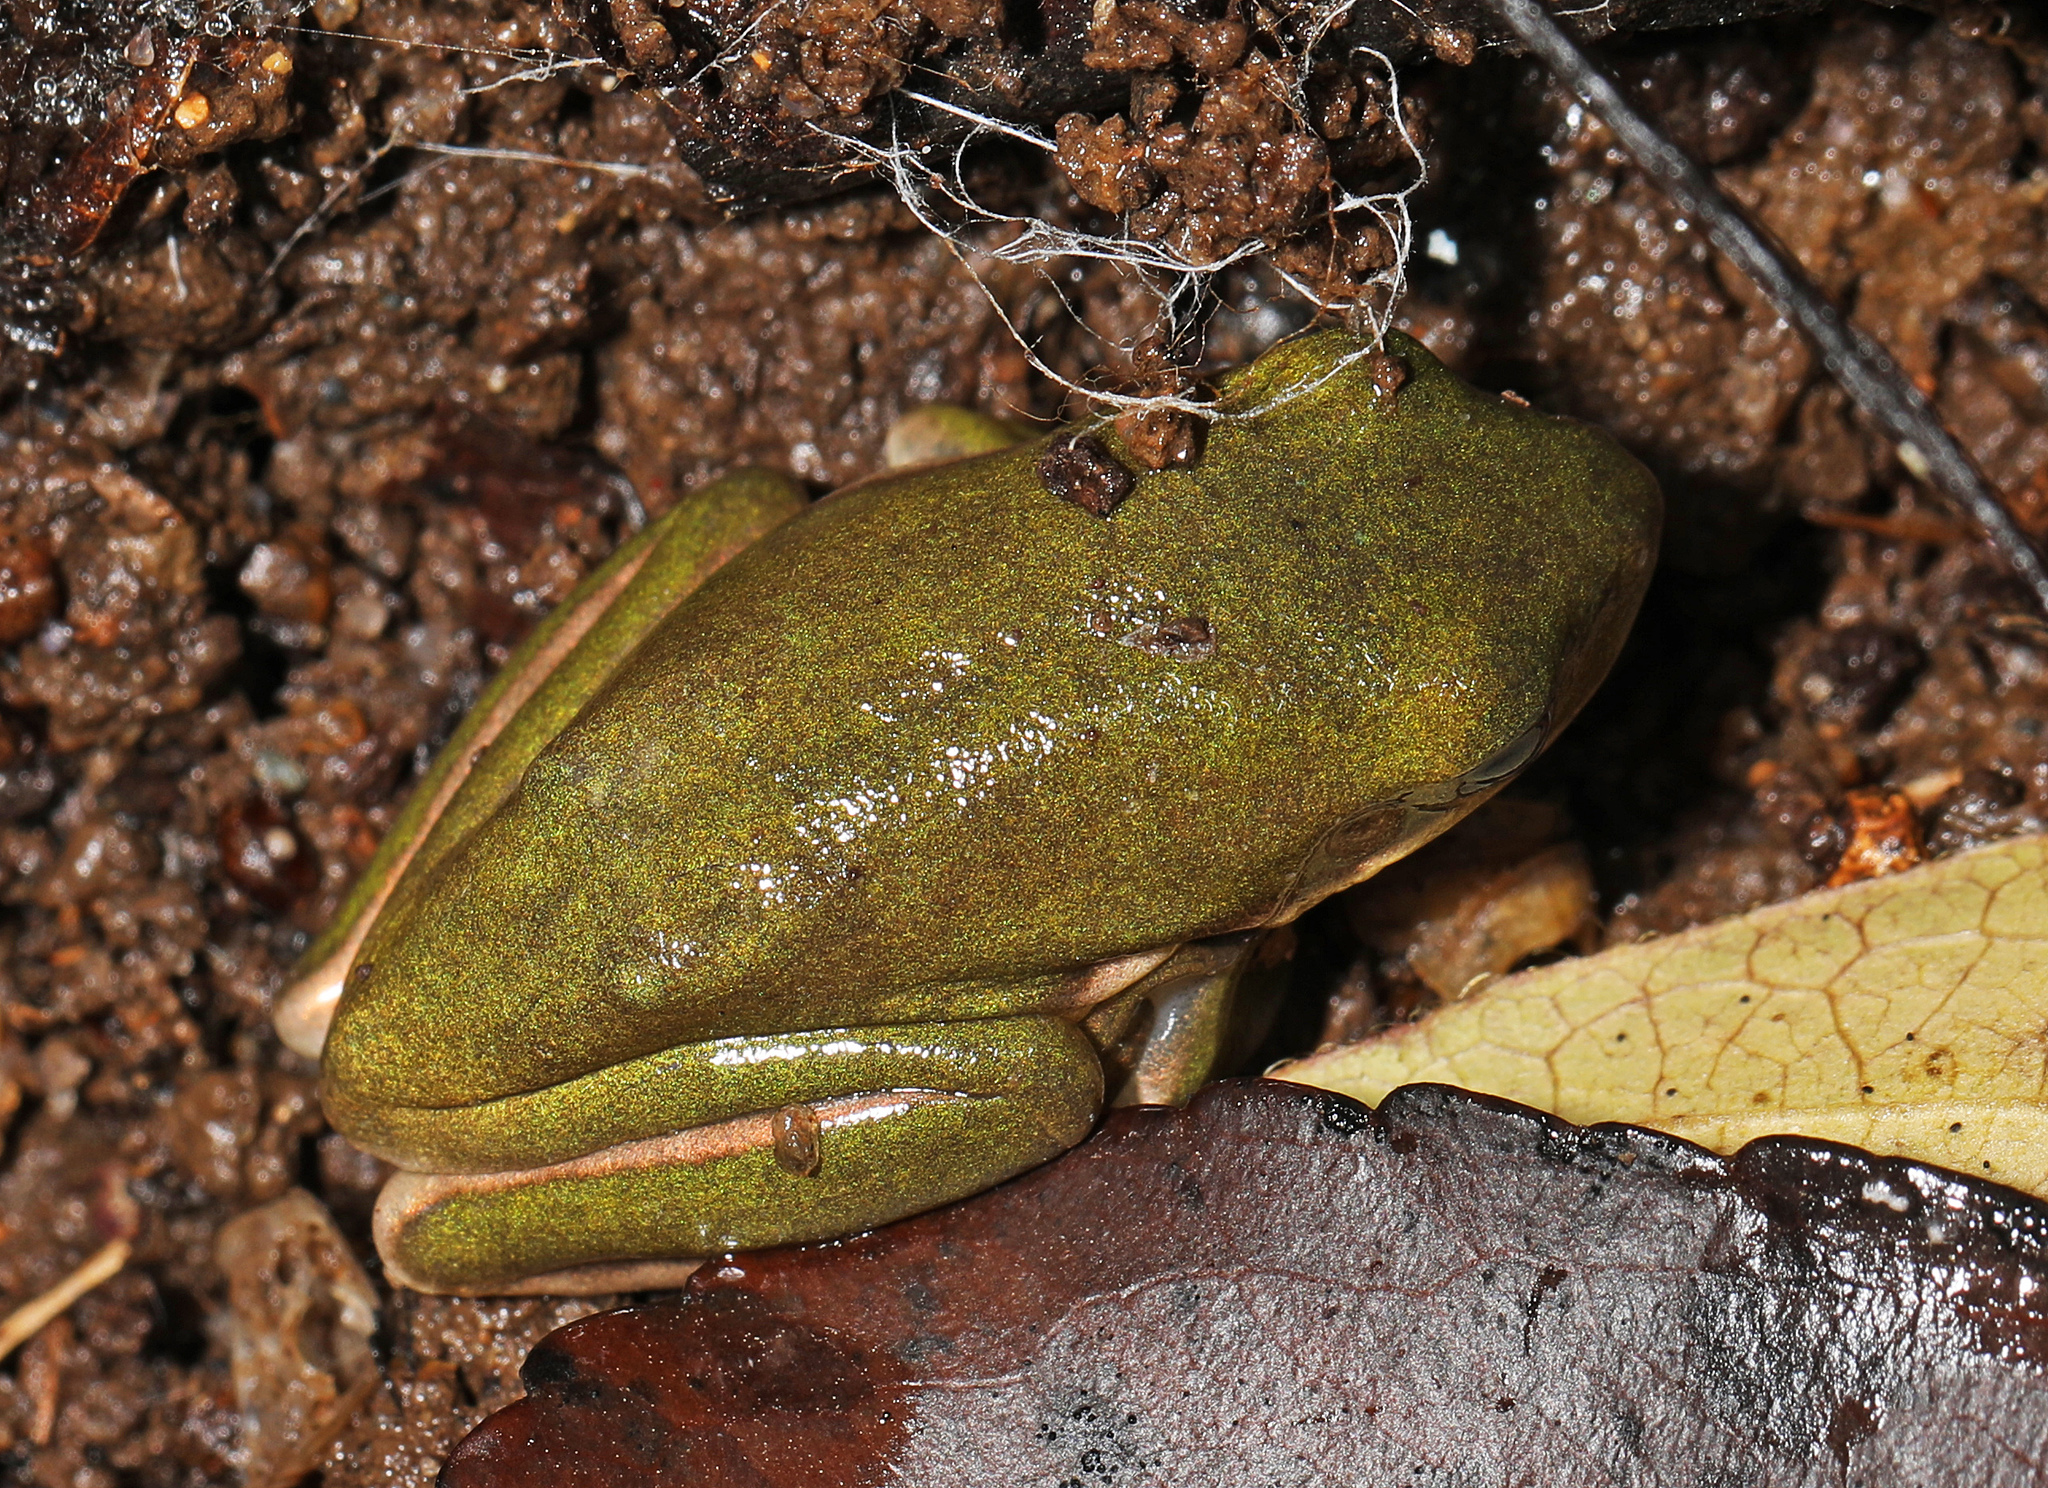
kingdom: Animalia
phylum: Chordata
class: Amphibia
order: Anura
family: Hylidae
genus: Dryophytes
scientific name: Dryophytes cinereus
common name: Green treefrog
